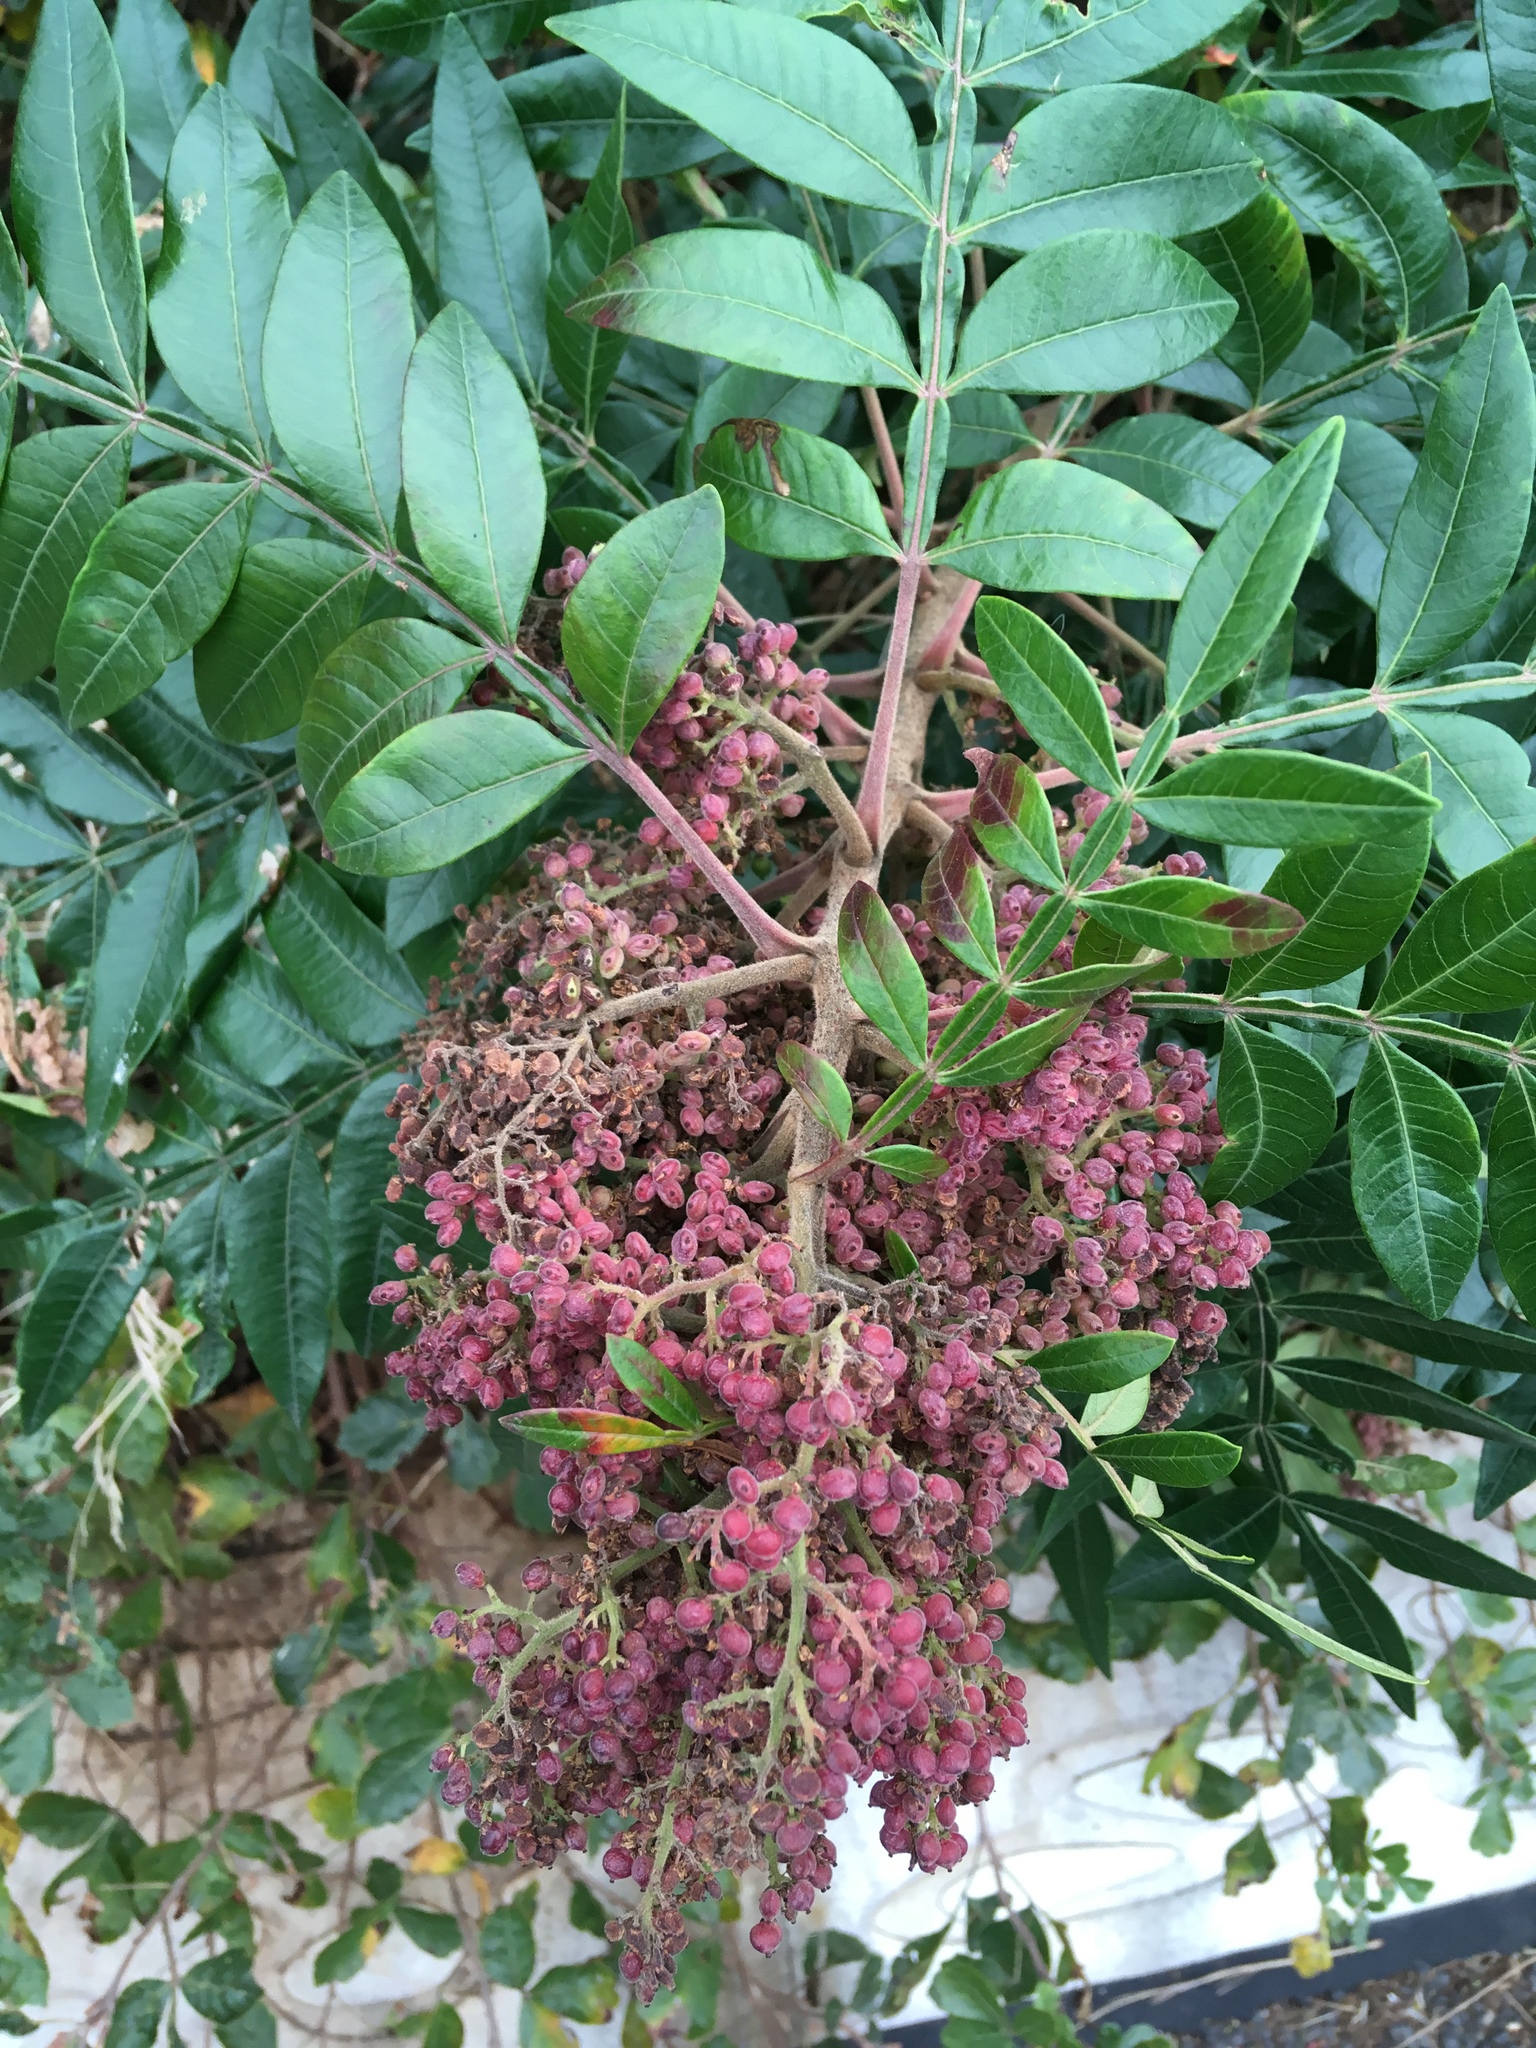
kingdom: Plantae
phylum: Tracheophyta
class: Magnoliopsida
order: Sapindales
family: Anacardiaceae
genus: Rhus
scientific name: Rhus copallina
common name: Shining sumac
